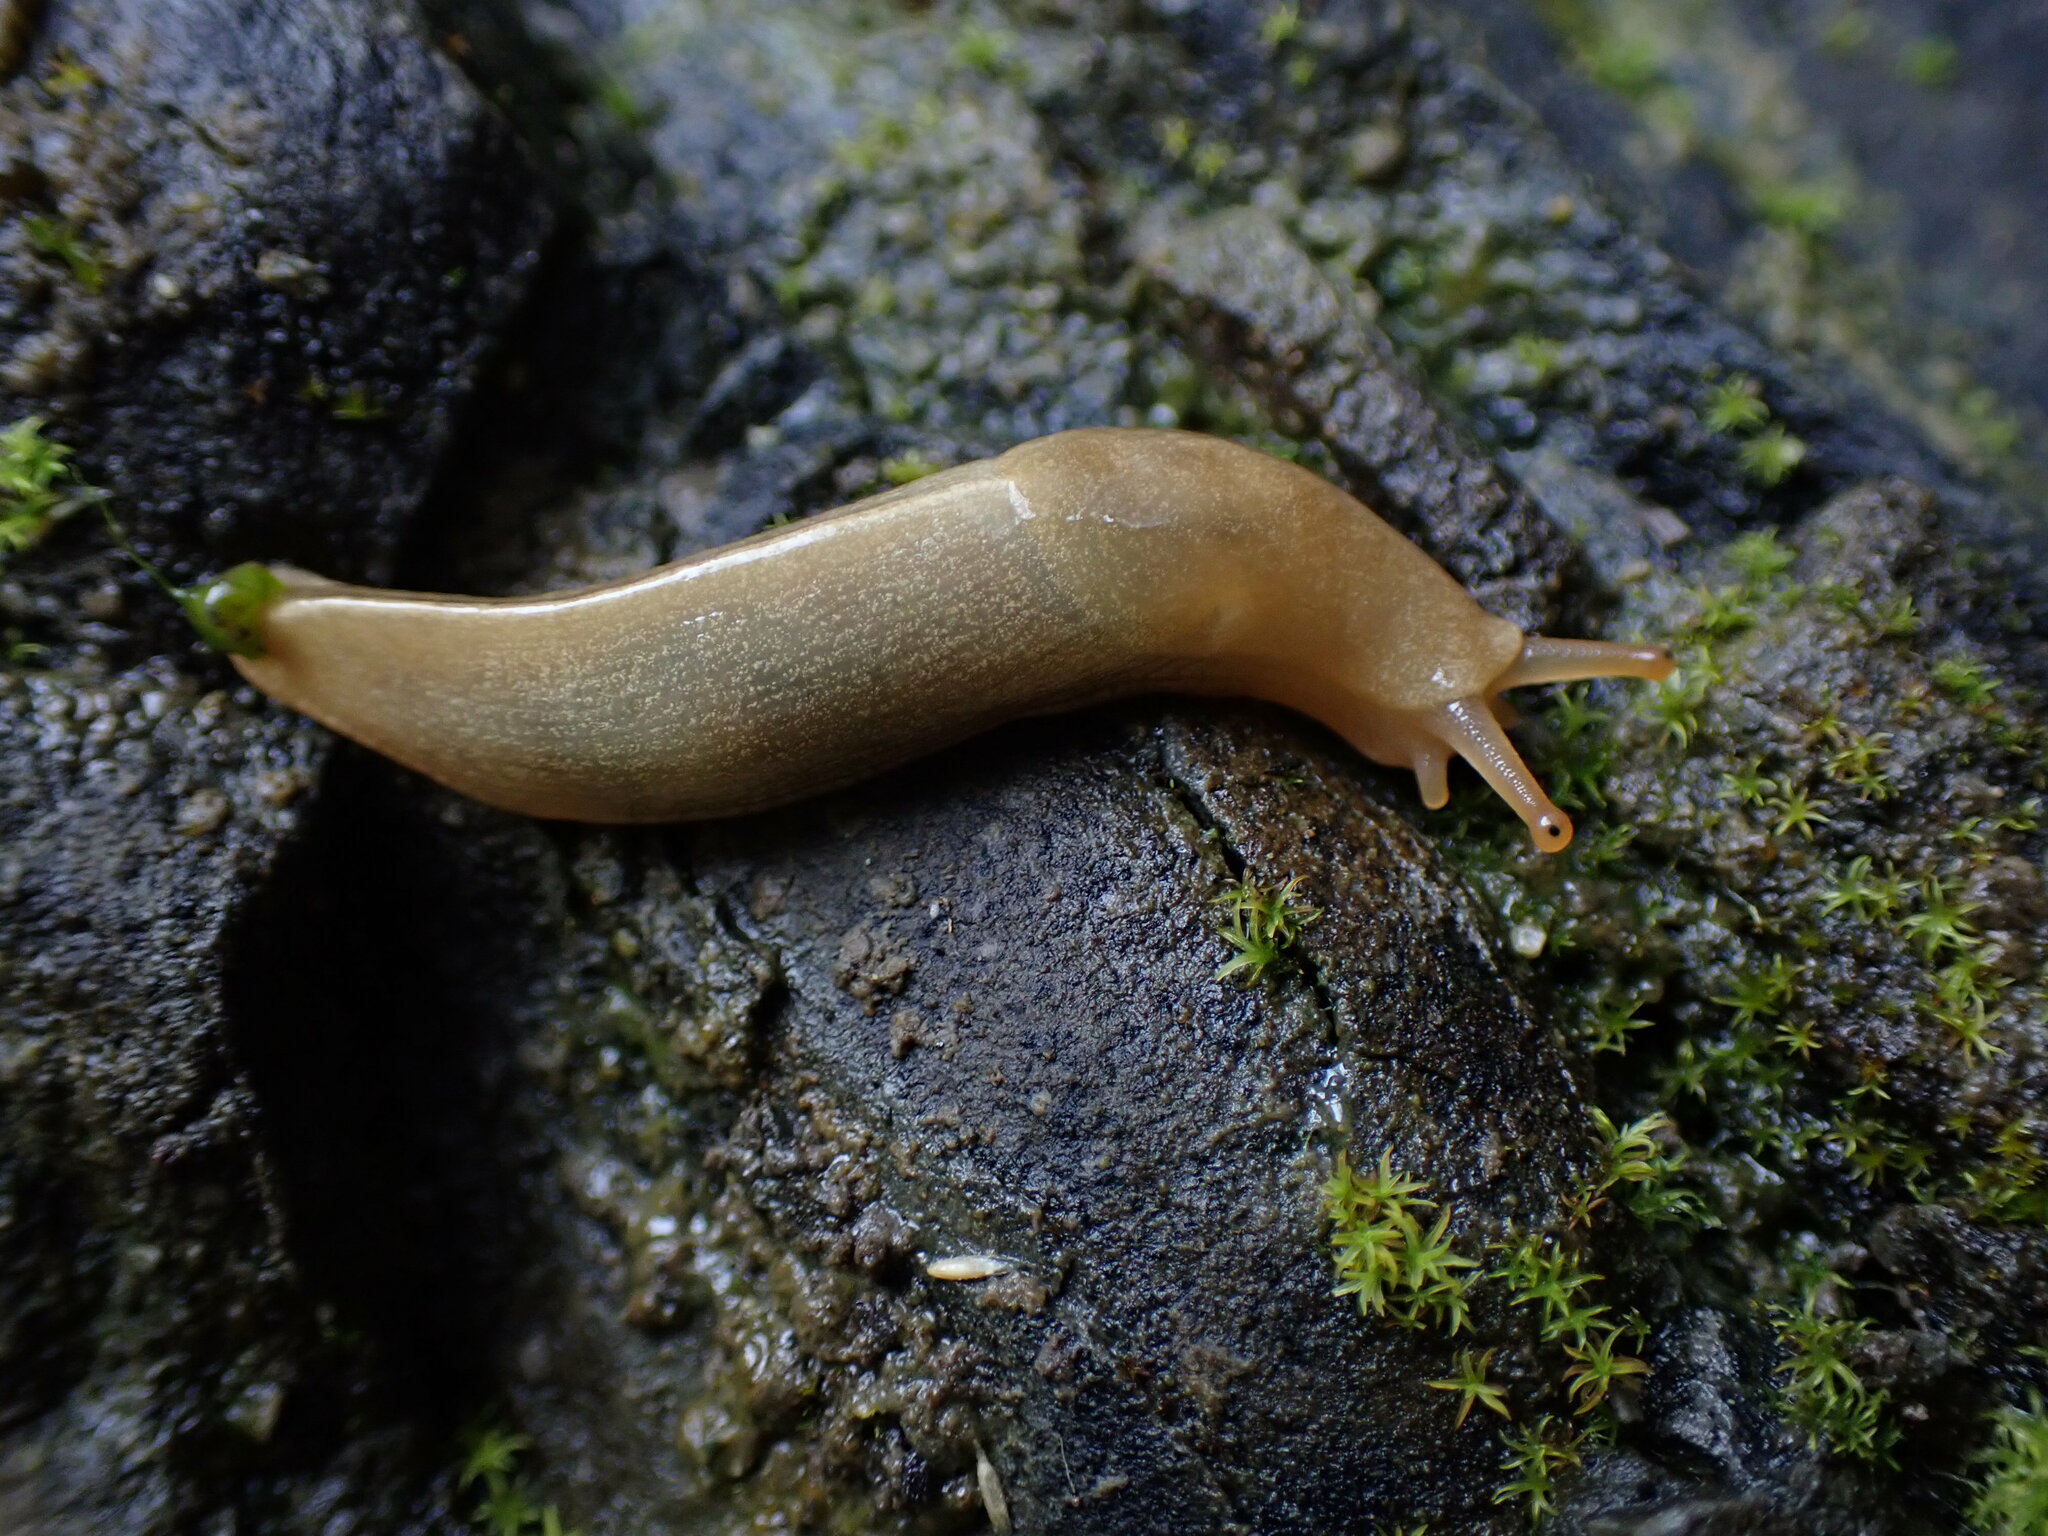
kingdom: Animalia
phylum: Mollusca
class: Gastropoda
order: Stylommatophora
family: Ariolimacidae
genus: Ariolimax
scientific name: Ariolimax columbianus
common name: Pacific banana slug
